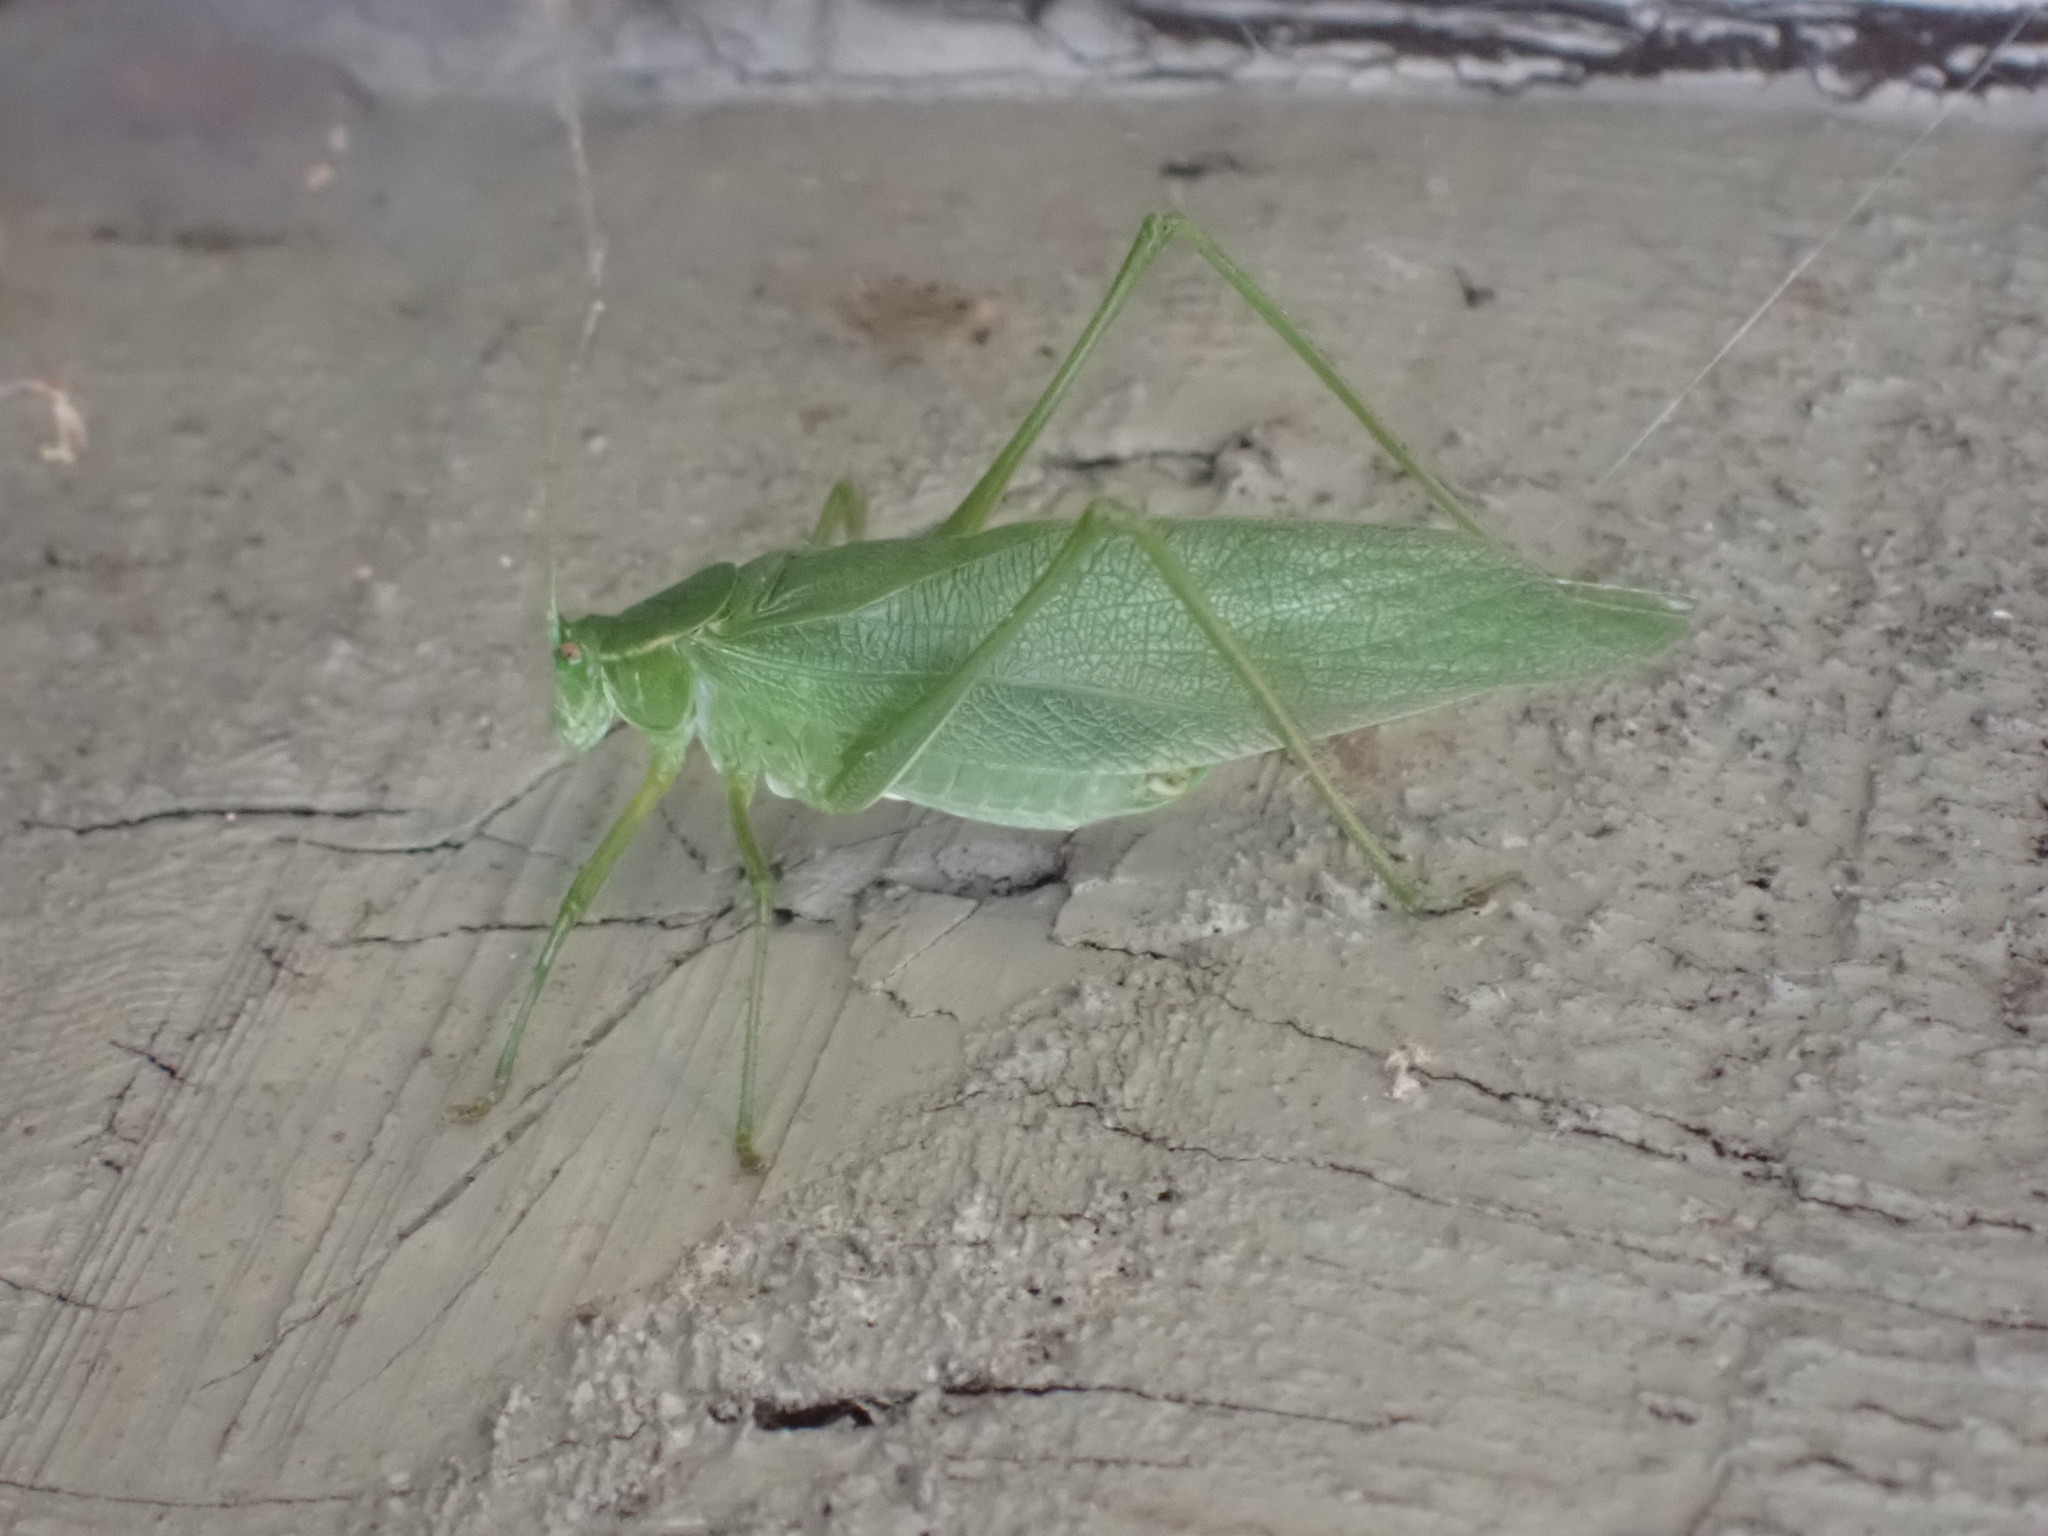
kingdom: Animalia
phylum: Arthropoda
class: Insecta
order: Orthoptera
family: Tettigoniidae
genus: Scudderia
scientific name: Scudderia pistillata
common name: Broad-winged bush-katydid
